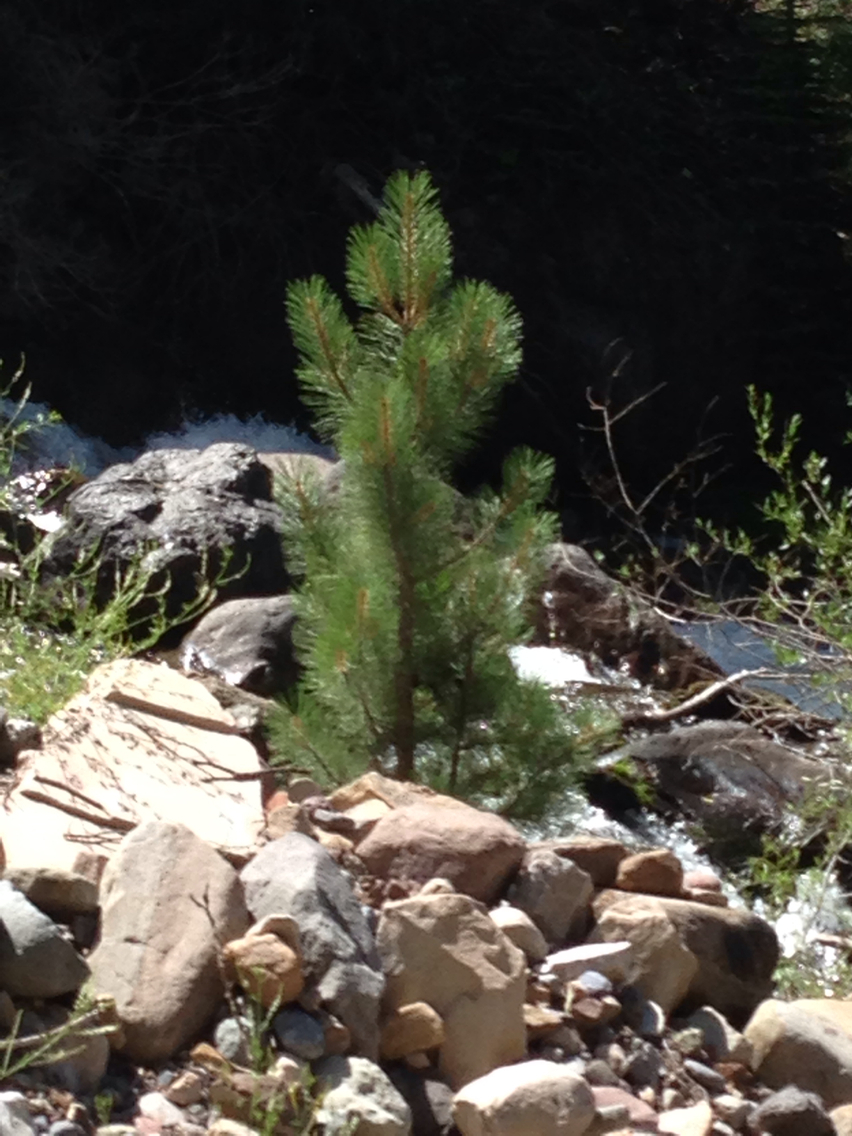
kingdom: Plantae
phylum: Tracheophyta
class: Pinopsida
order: Pinales
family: Pinaceae
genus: Pinus
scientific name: Pinus ponderosa
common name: Western yellow-pine
